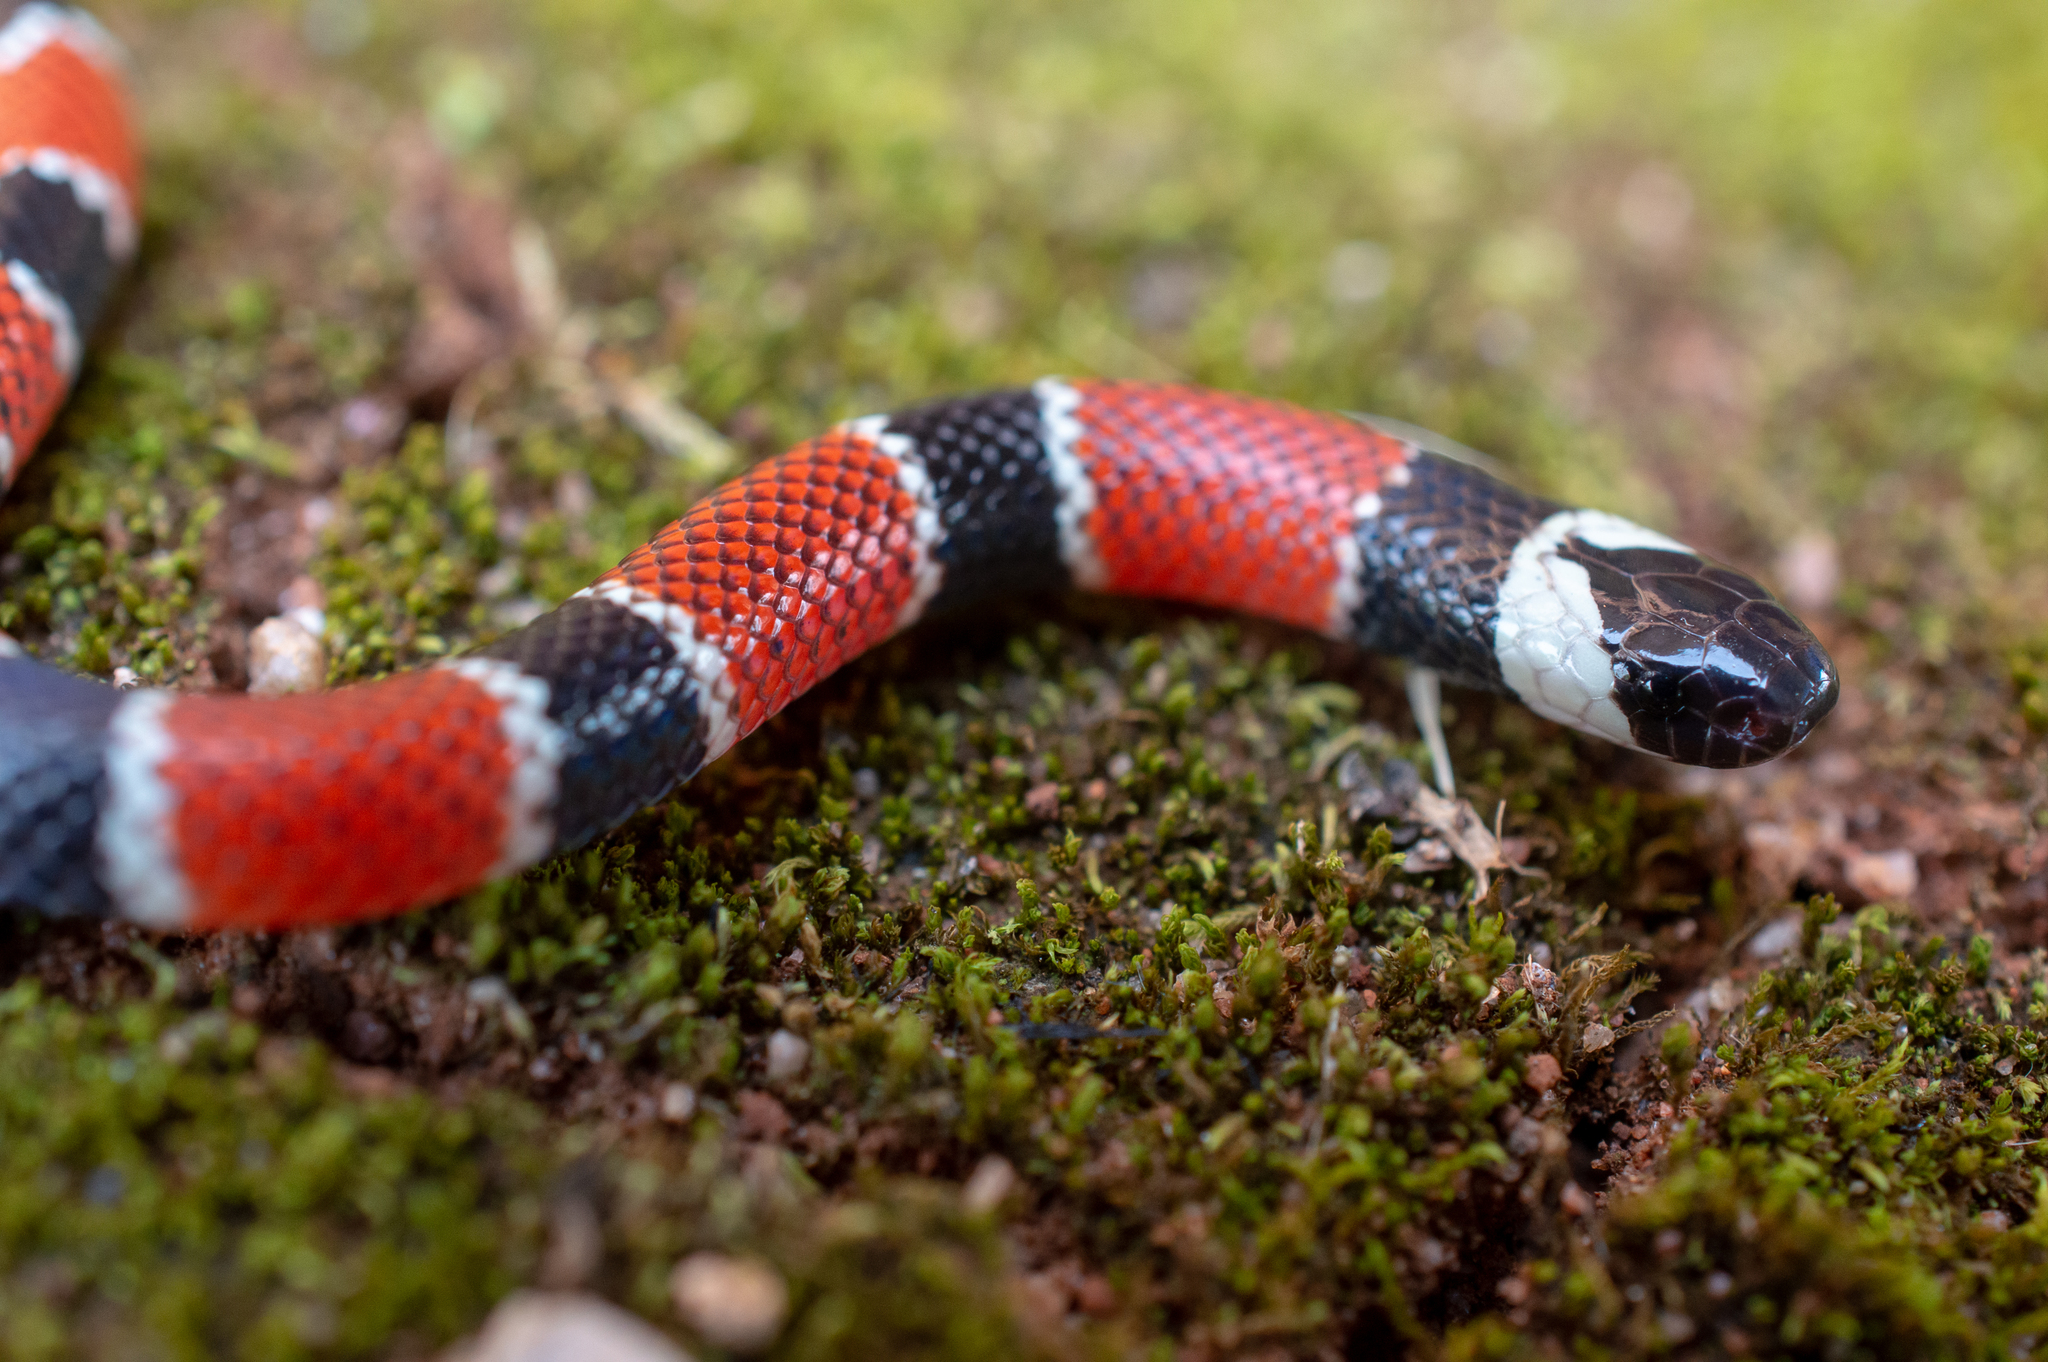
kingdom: Animalia
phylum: Chordata
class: Squamata
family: Elapidae
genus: Micrurus
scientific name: Micrurus corallinus
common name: Painted coral snake
